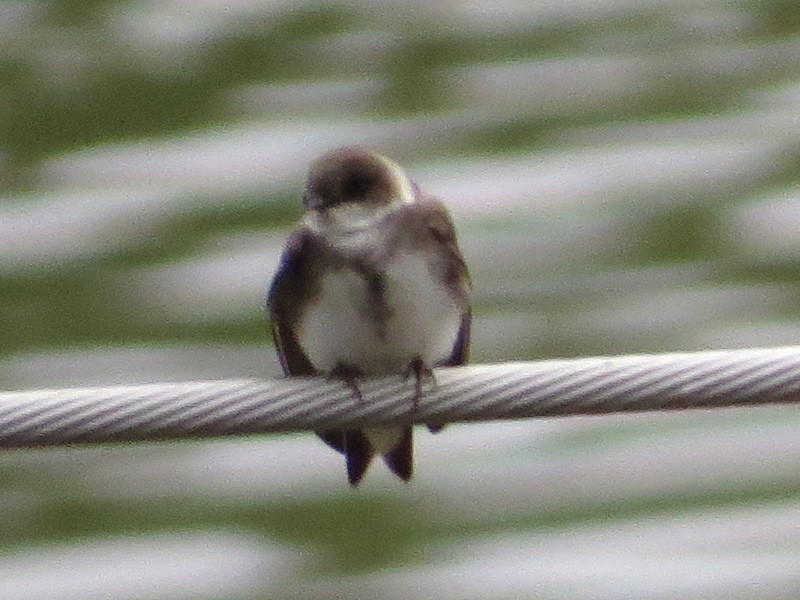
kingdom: Animalia
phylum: Chordata
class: Aves
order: Passeriformes
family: Hirundinidae
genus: Riparia
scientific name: Riparia riparia
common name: Sand martin
